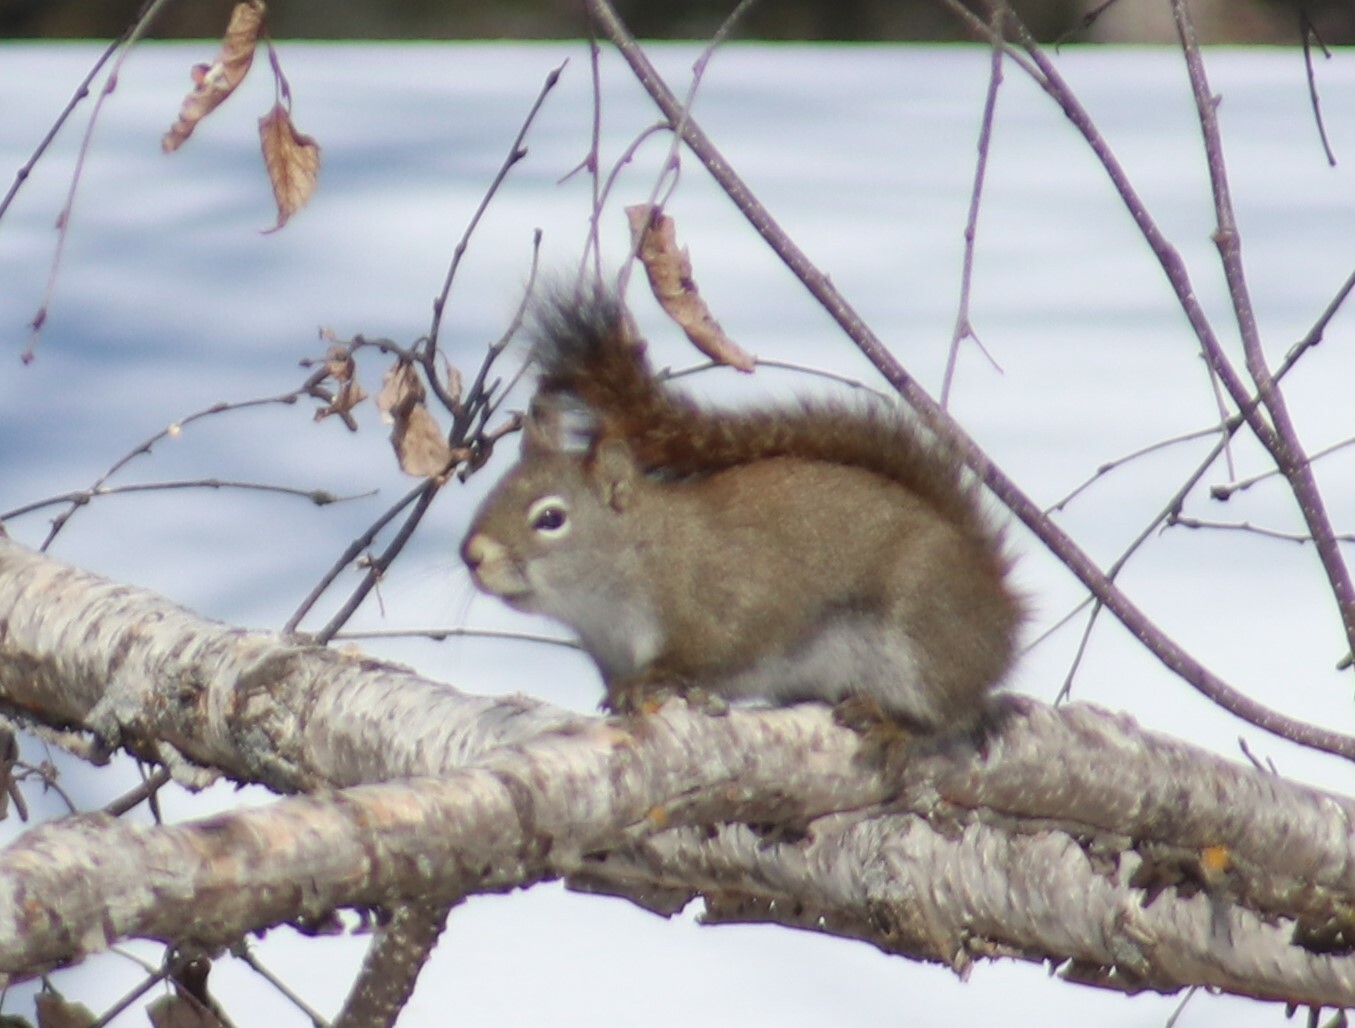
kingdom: Animalia
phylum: Chordata
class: Mammalia
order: Rodentia
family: Sciuridae
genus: Tamiasciurus
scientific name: Tamiasciurus hudsonicus
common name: Red squirrel
